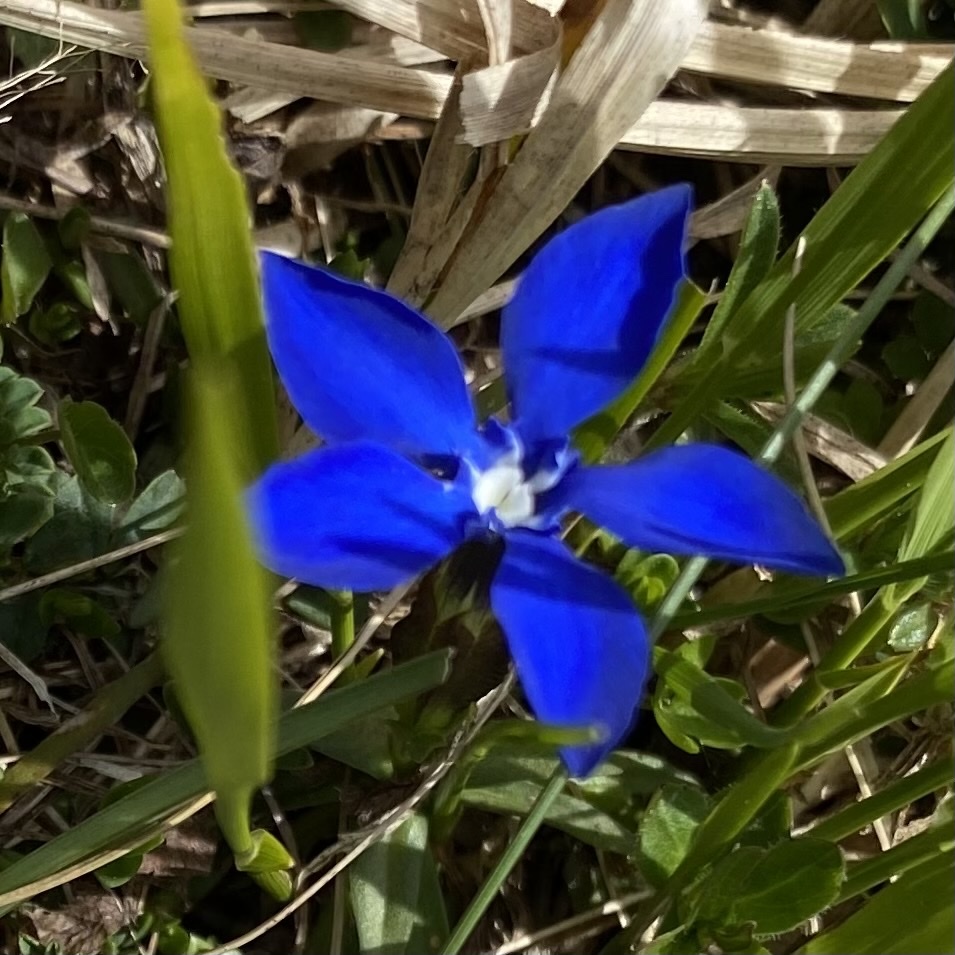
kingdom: Plantae
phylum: Tracheophyta
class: Magnoliopsida
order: Gentianales
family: Gentianaceae
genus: Gentiana
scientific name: Gentiana verna
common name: Spring gentian
